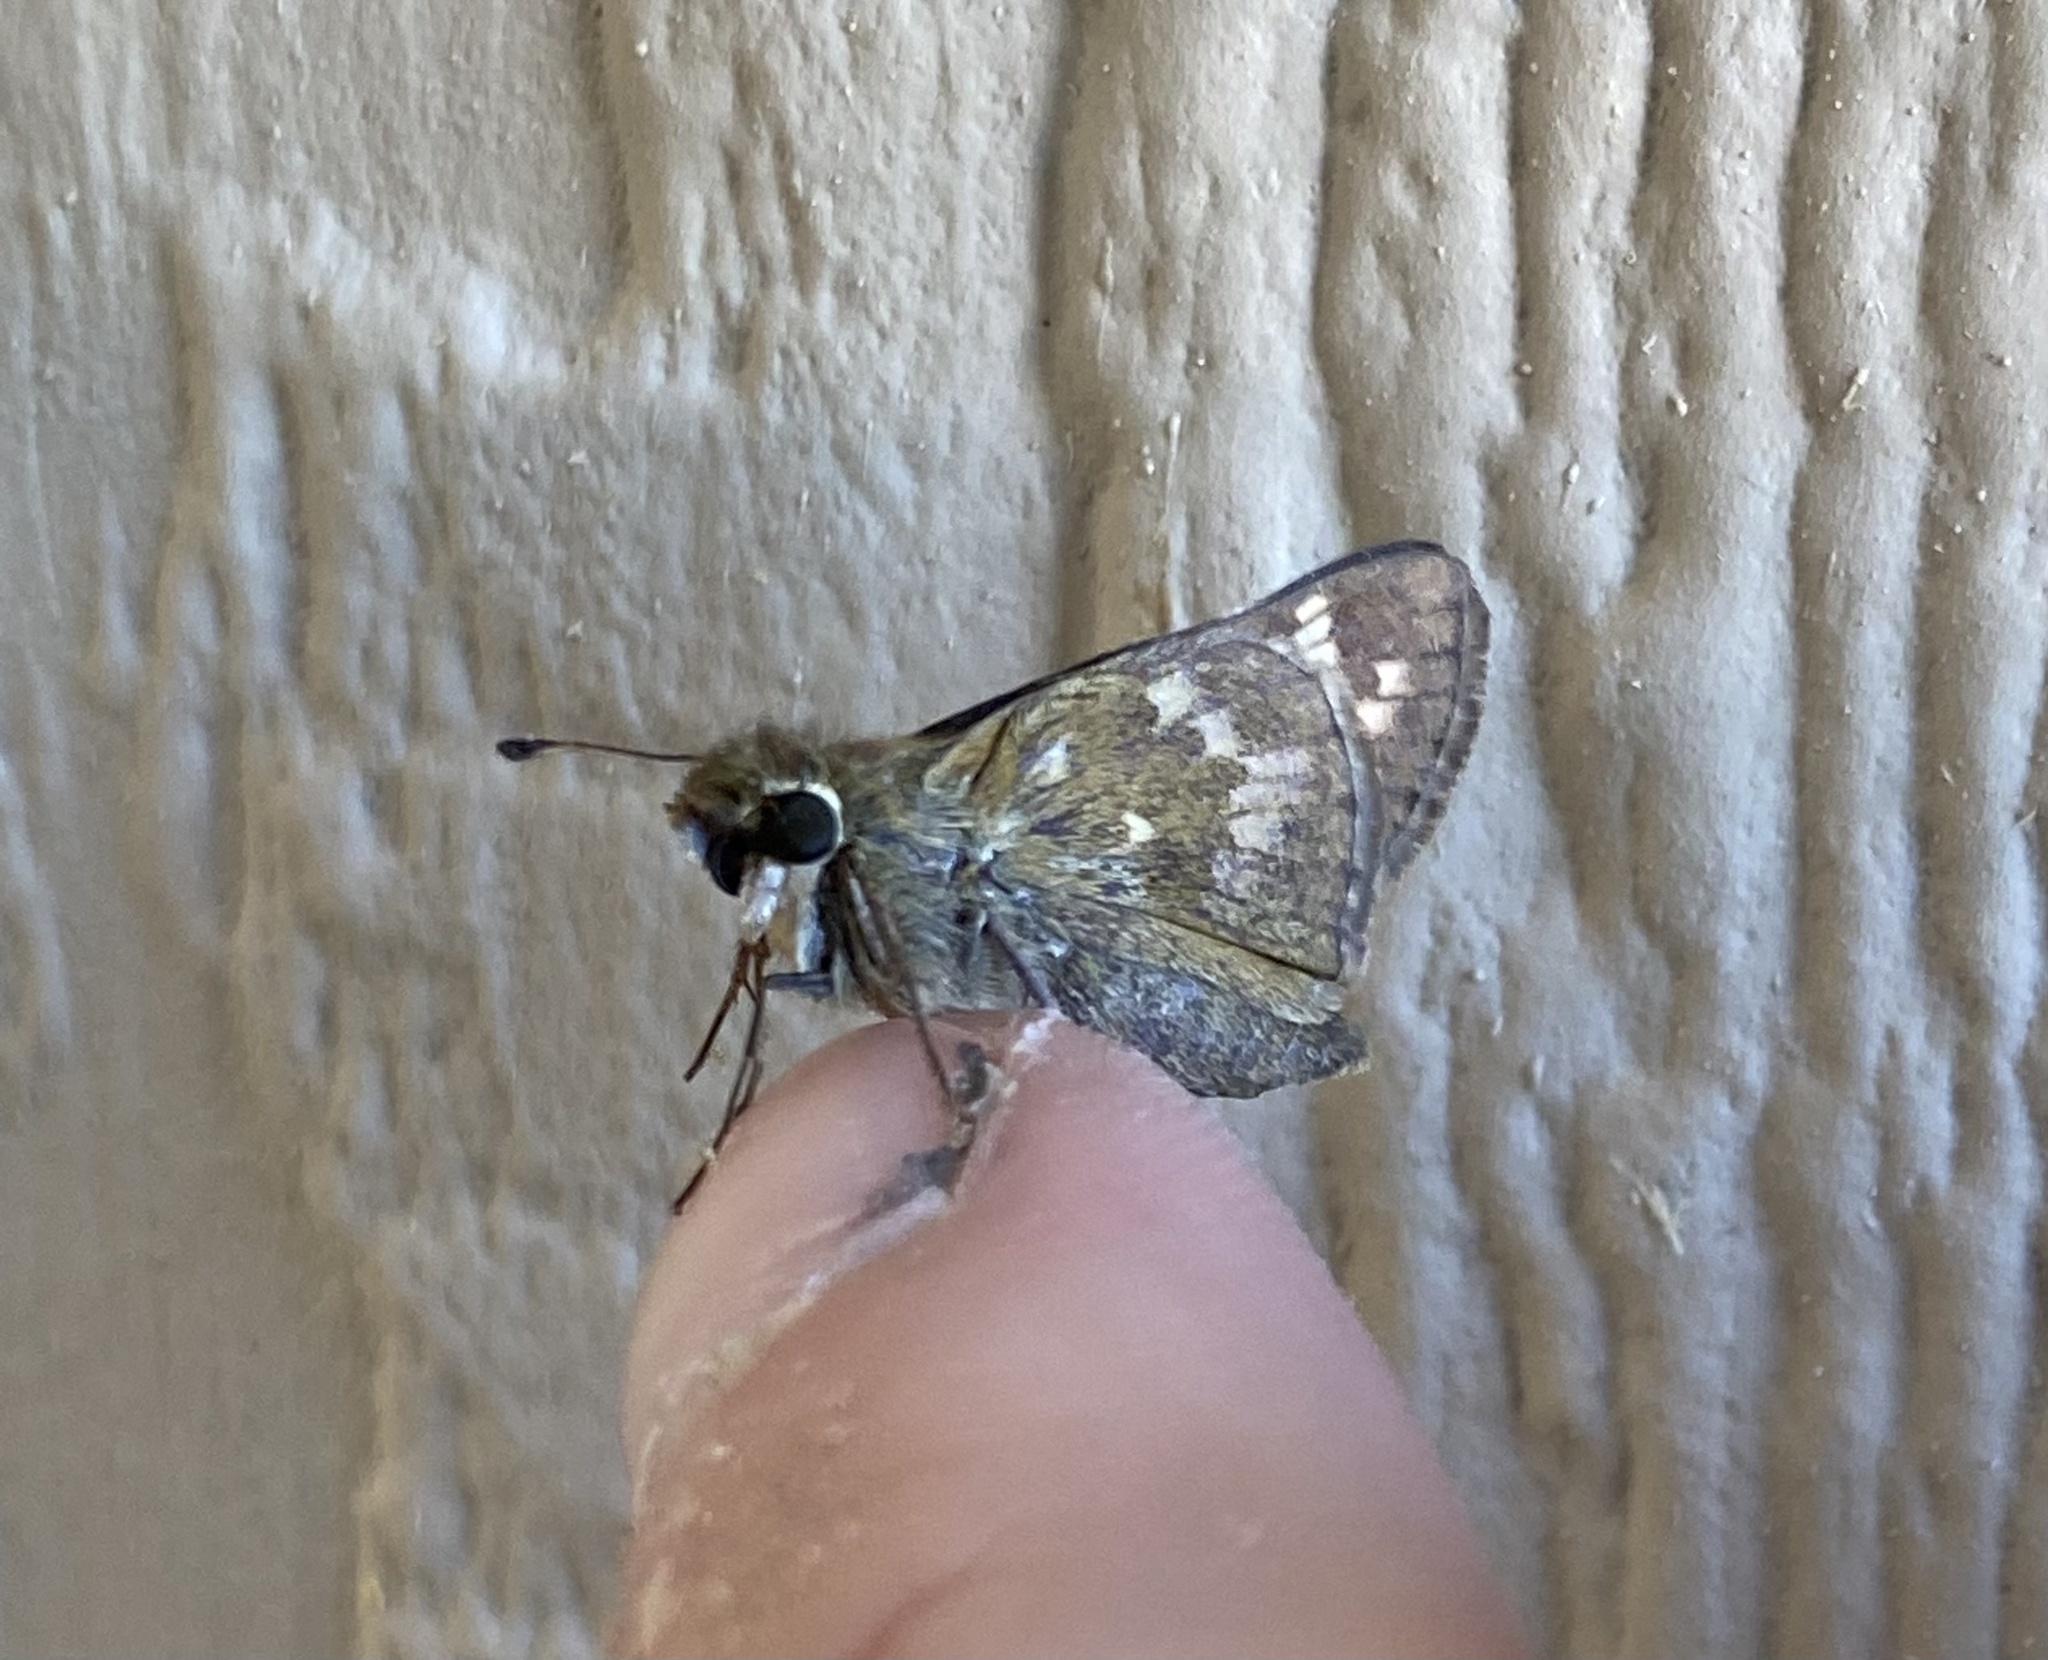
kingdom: Animalia
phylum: Arthropoda
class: Insecta
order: Lepidoptera
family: Hesperiidae
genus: Atalopedes
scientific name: Atalopedes
